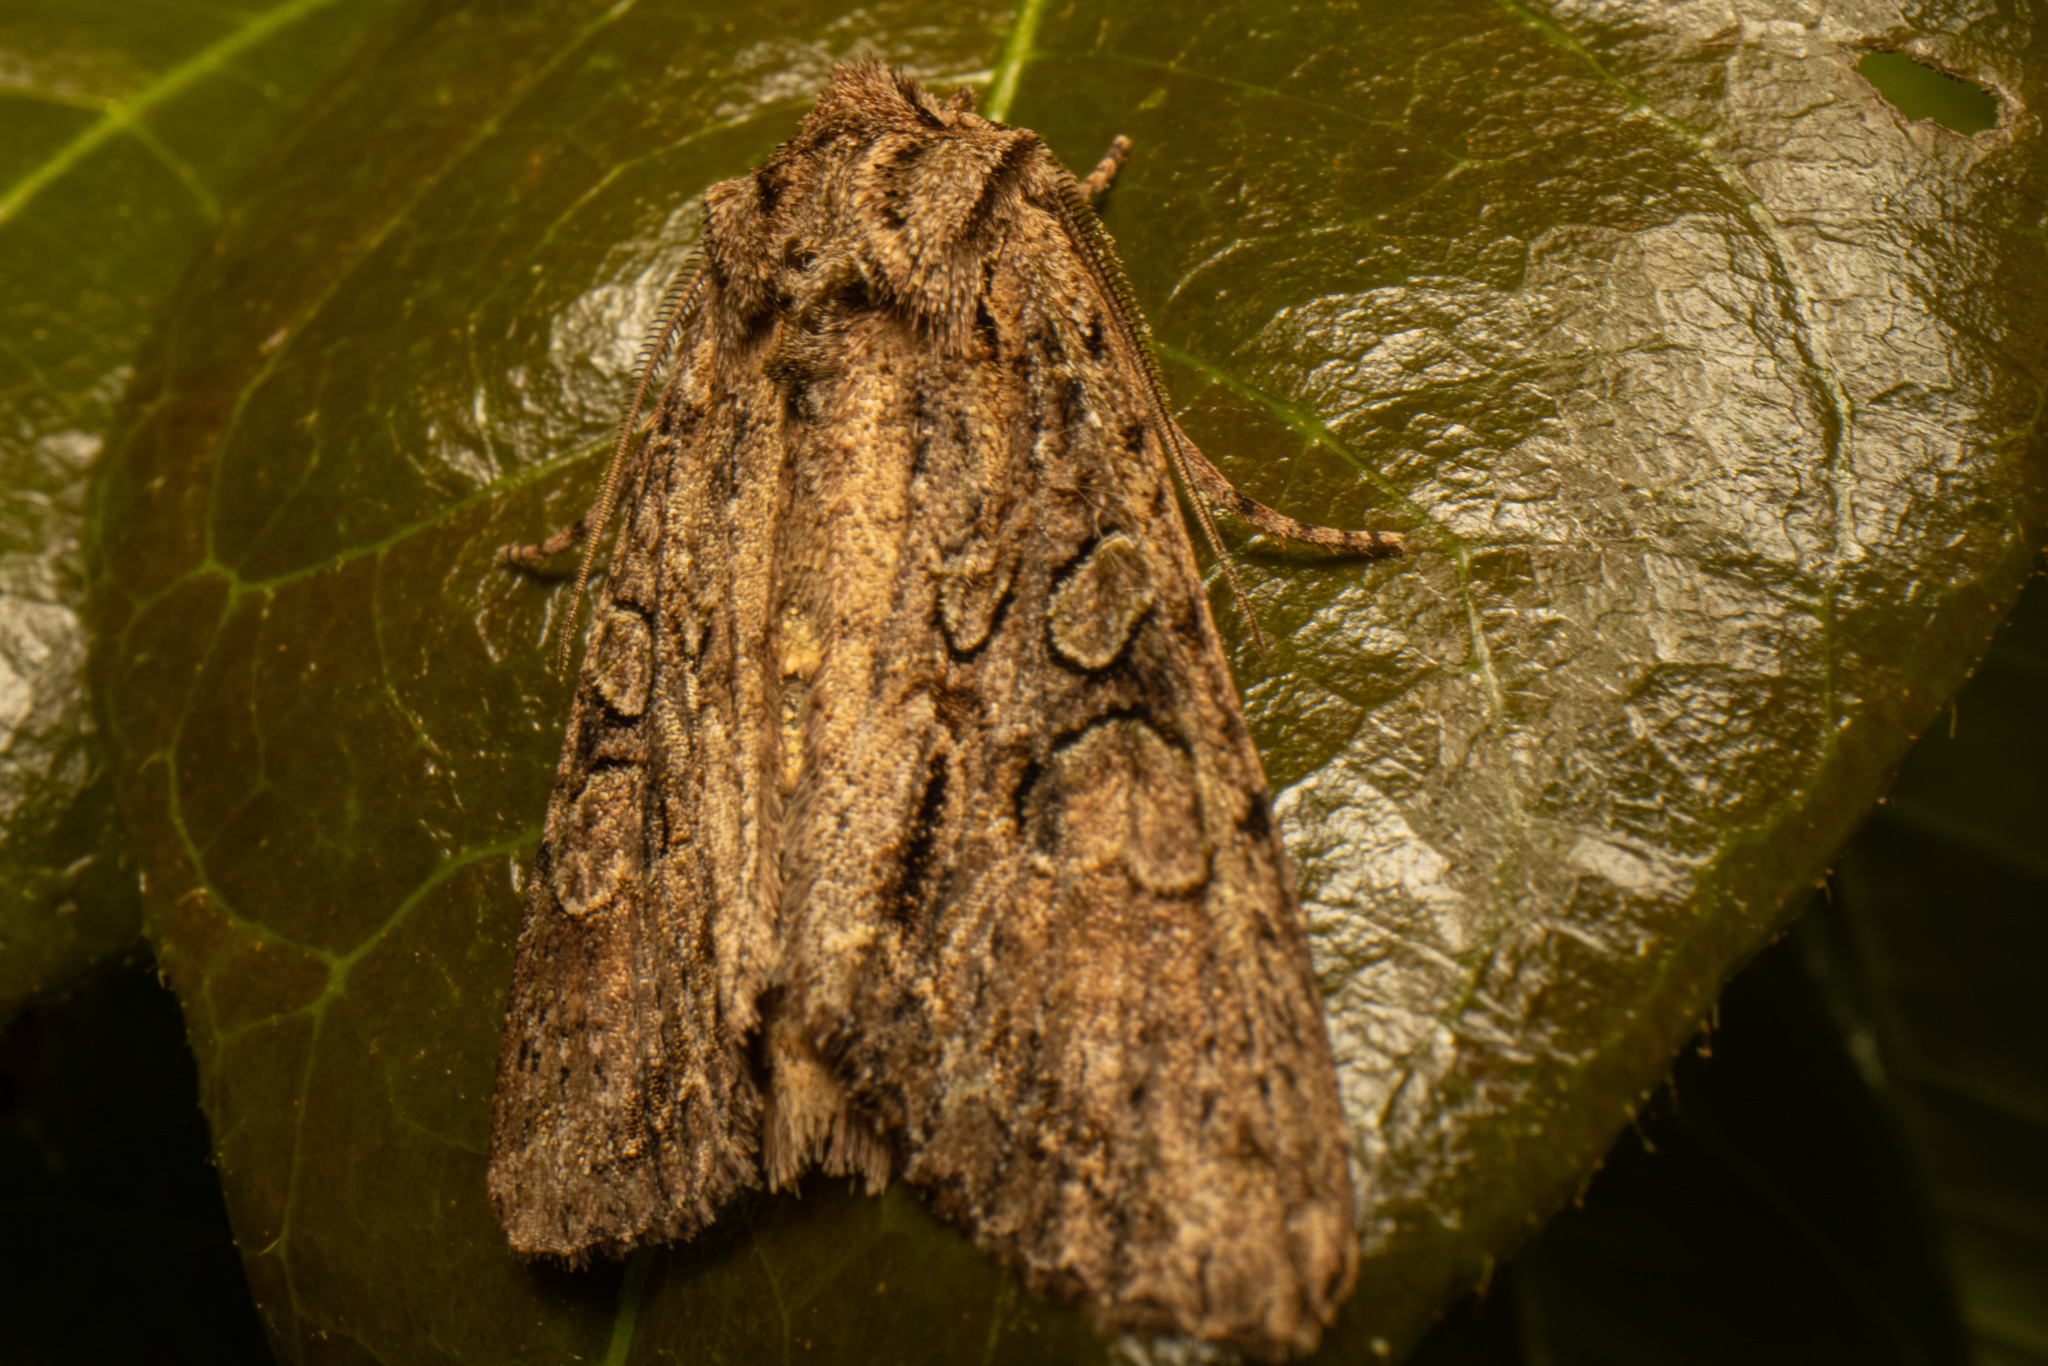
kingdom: Animalia
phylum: Arthropoda
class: Insecta
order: Lepidoptera
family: Noctuidae
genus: Ichneutica
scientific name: Ichneutica mutans
